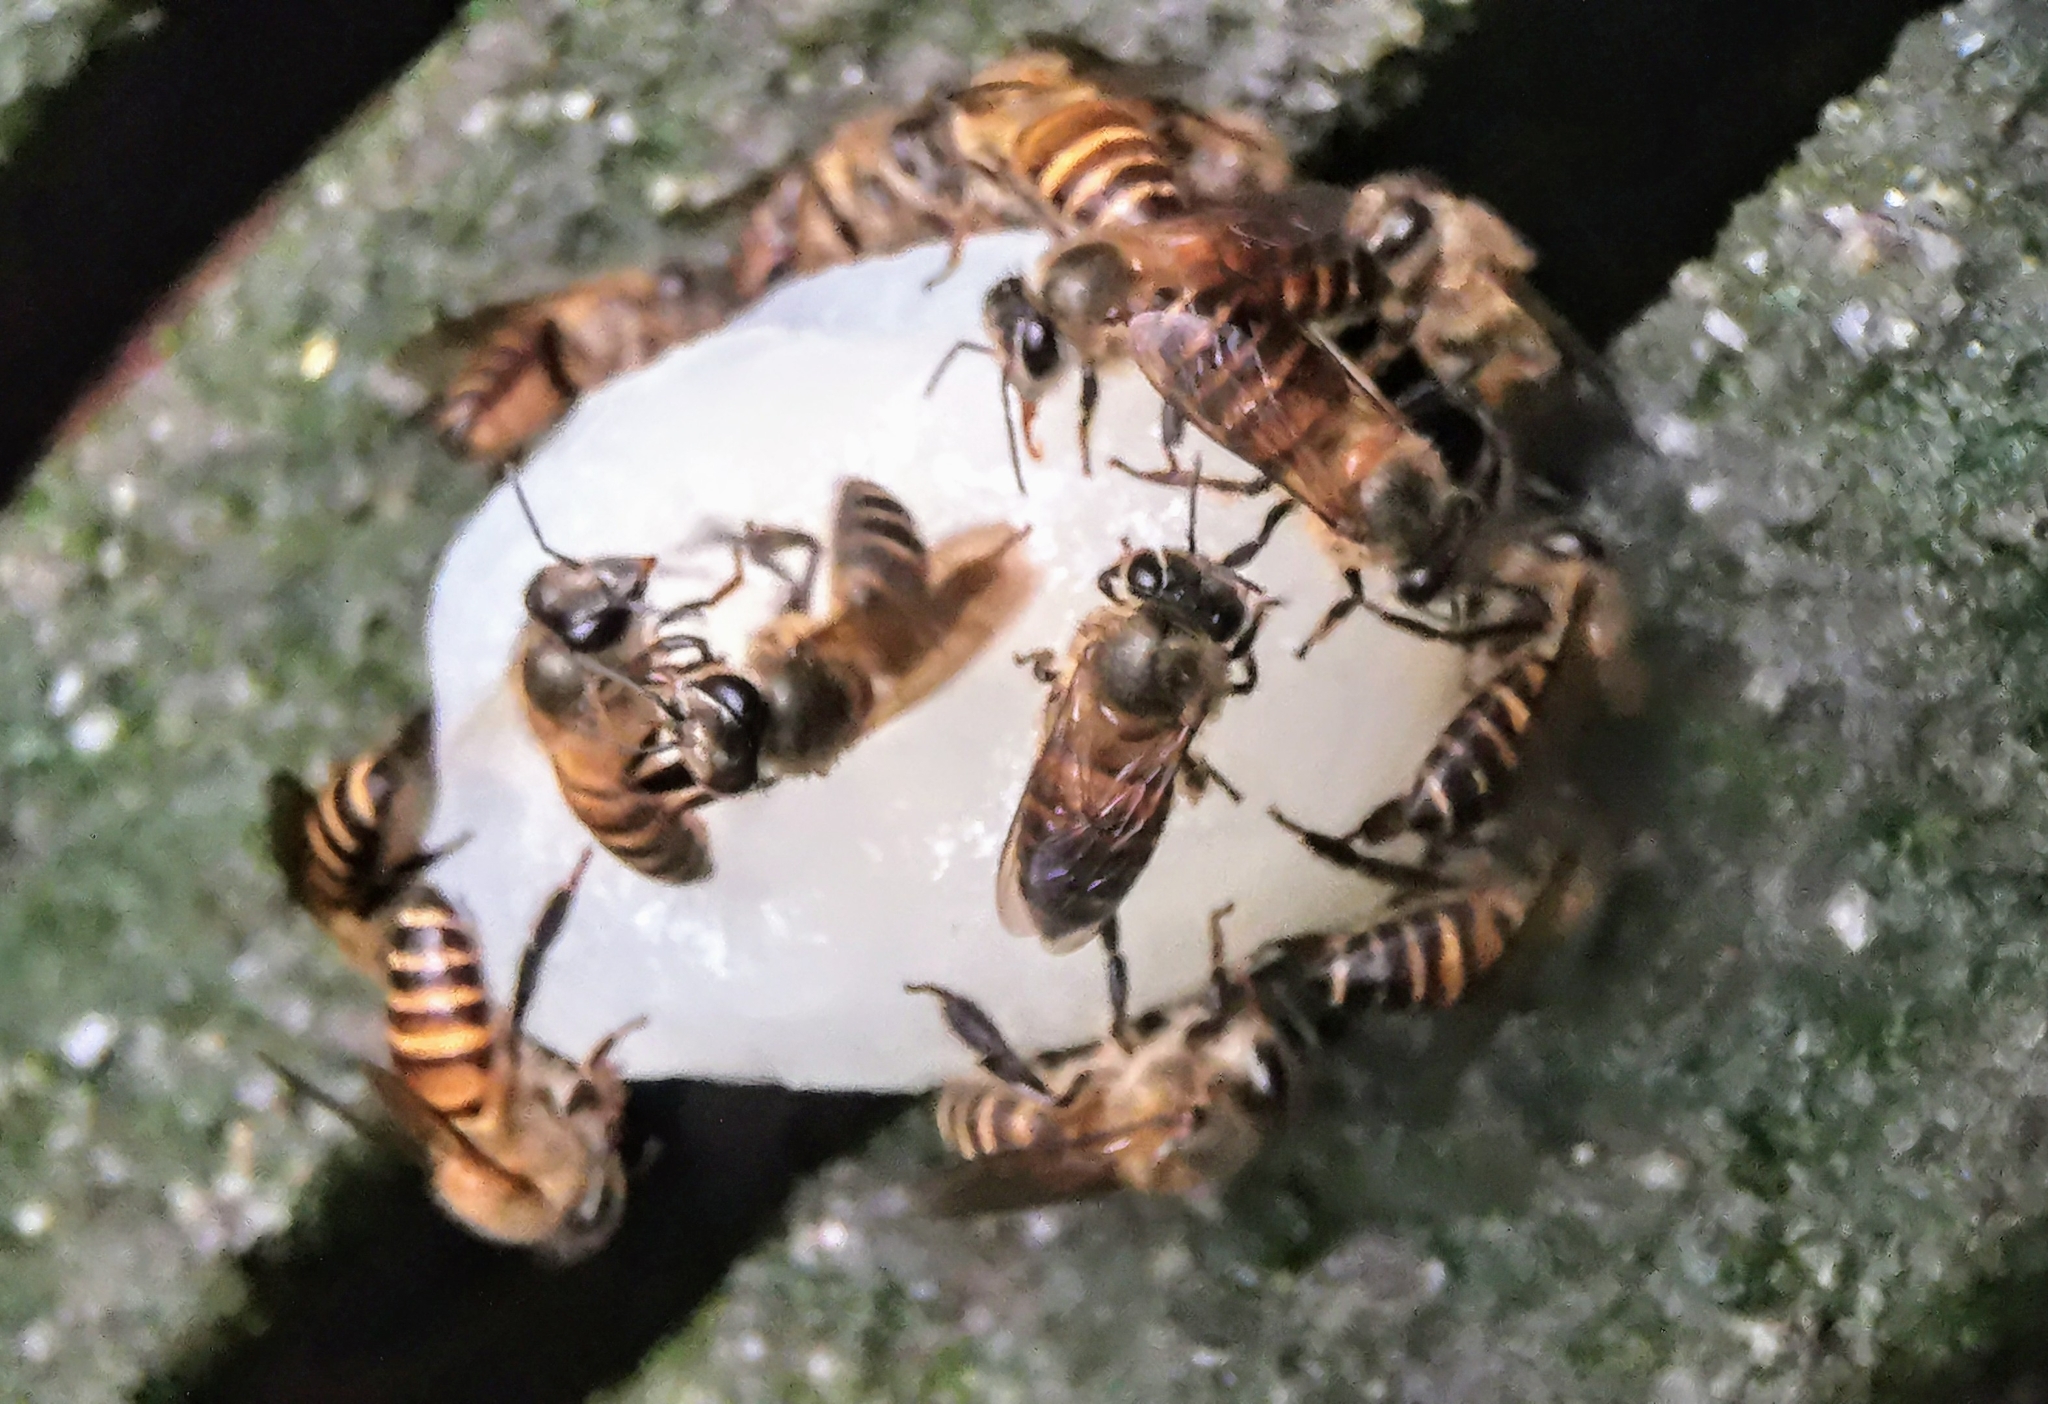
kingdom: Animalia
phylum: Arthropoda
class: Insecta
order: Hymenoptera
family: Apidae
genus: Apis
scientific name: Apis cerana
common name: Honey bee
